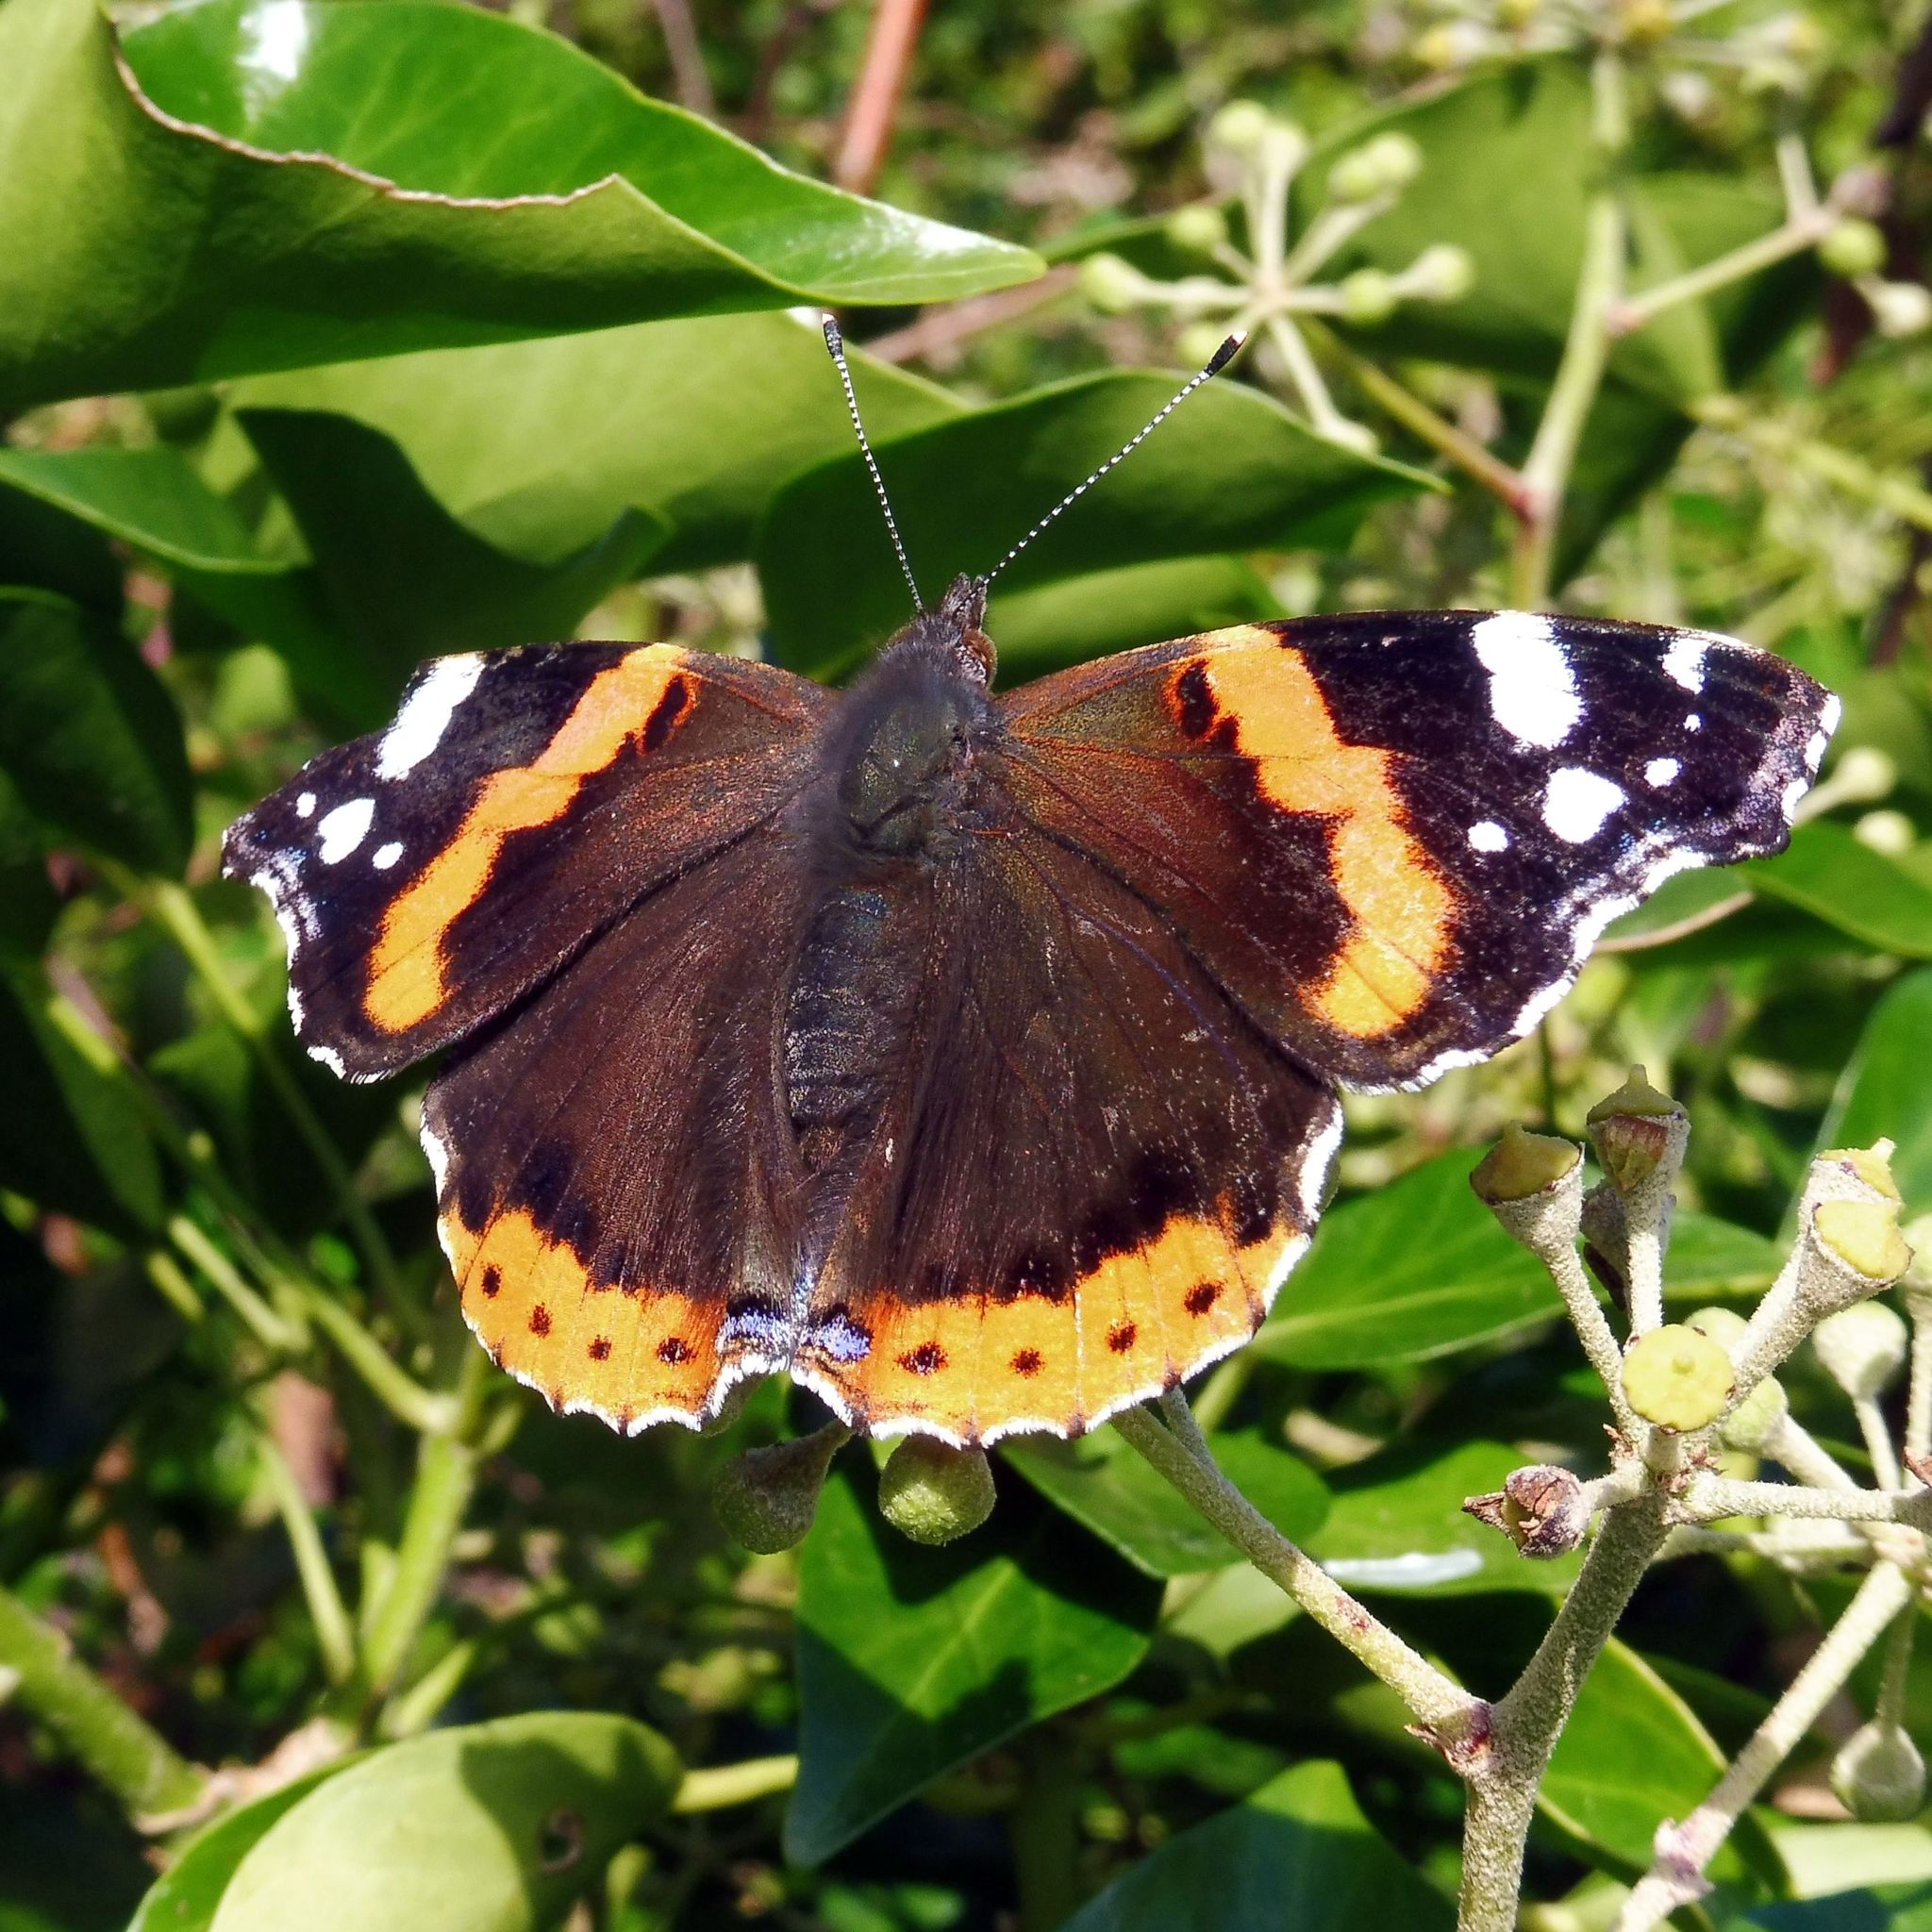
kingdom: Animalia
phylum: Arthropoda
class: Insecta
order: Lepidoptera
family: Nymphalidae
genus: Vanessa
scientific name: Vanessa atalanta
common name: Red admiral
